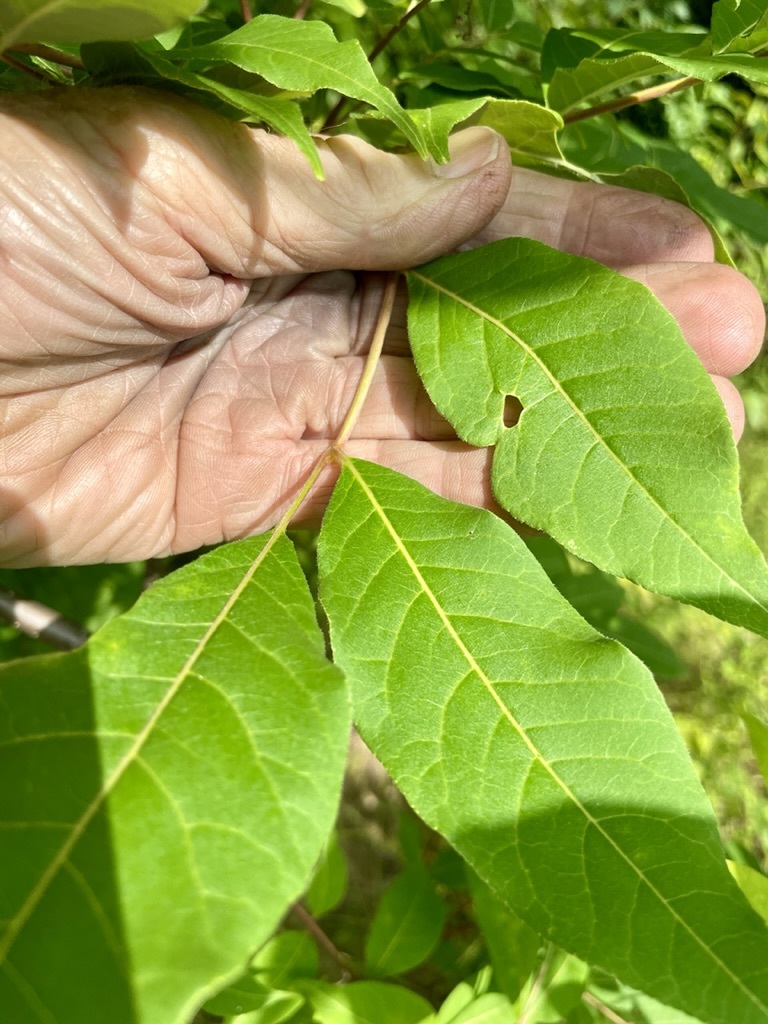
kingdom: Plantae
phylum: Tracheophyta
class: Magnoliopsida
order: Sapindales
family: Rutaceae
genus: Phellodendron
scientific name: Phellodendron amurense
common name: Amur corktree
